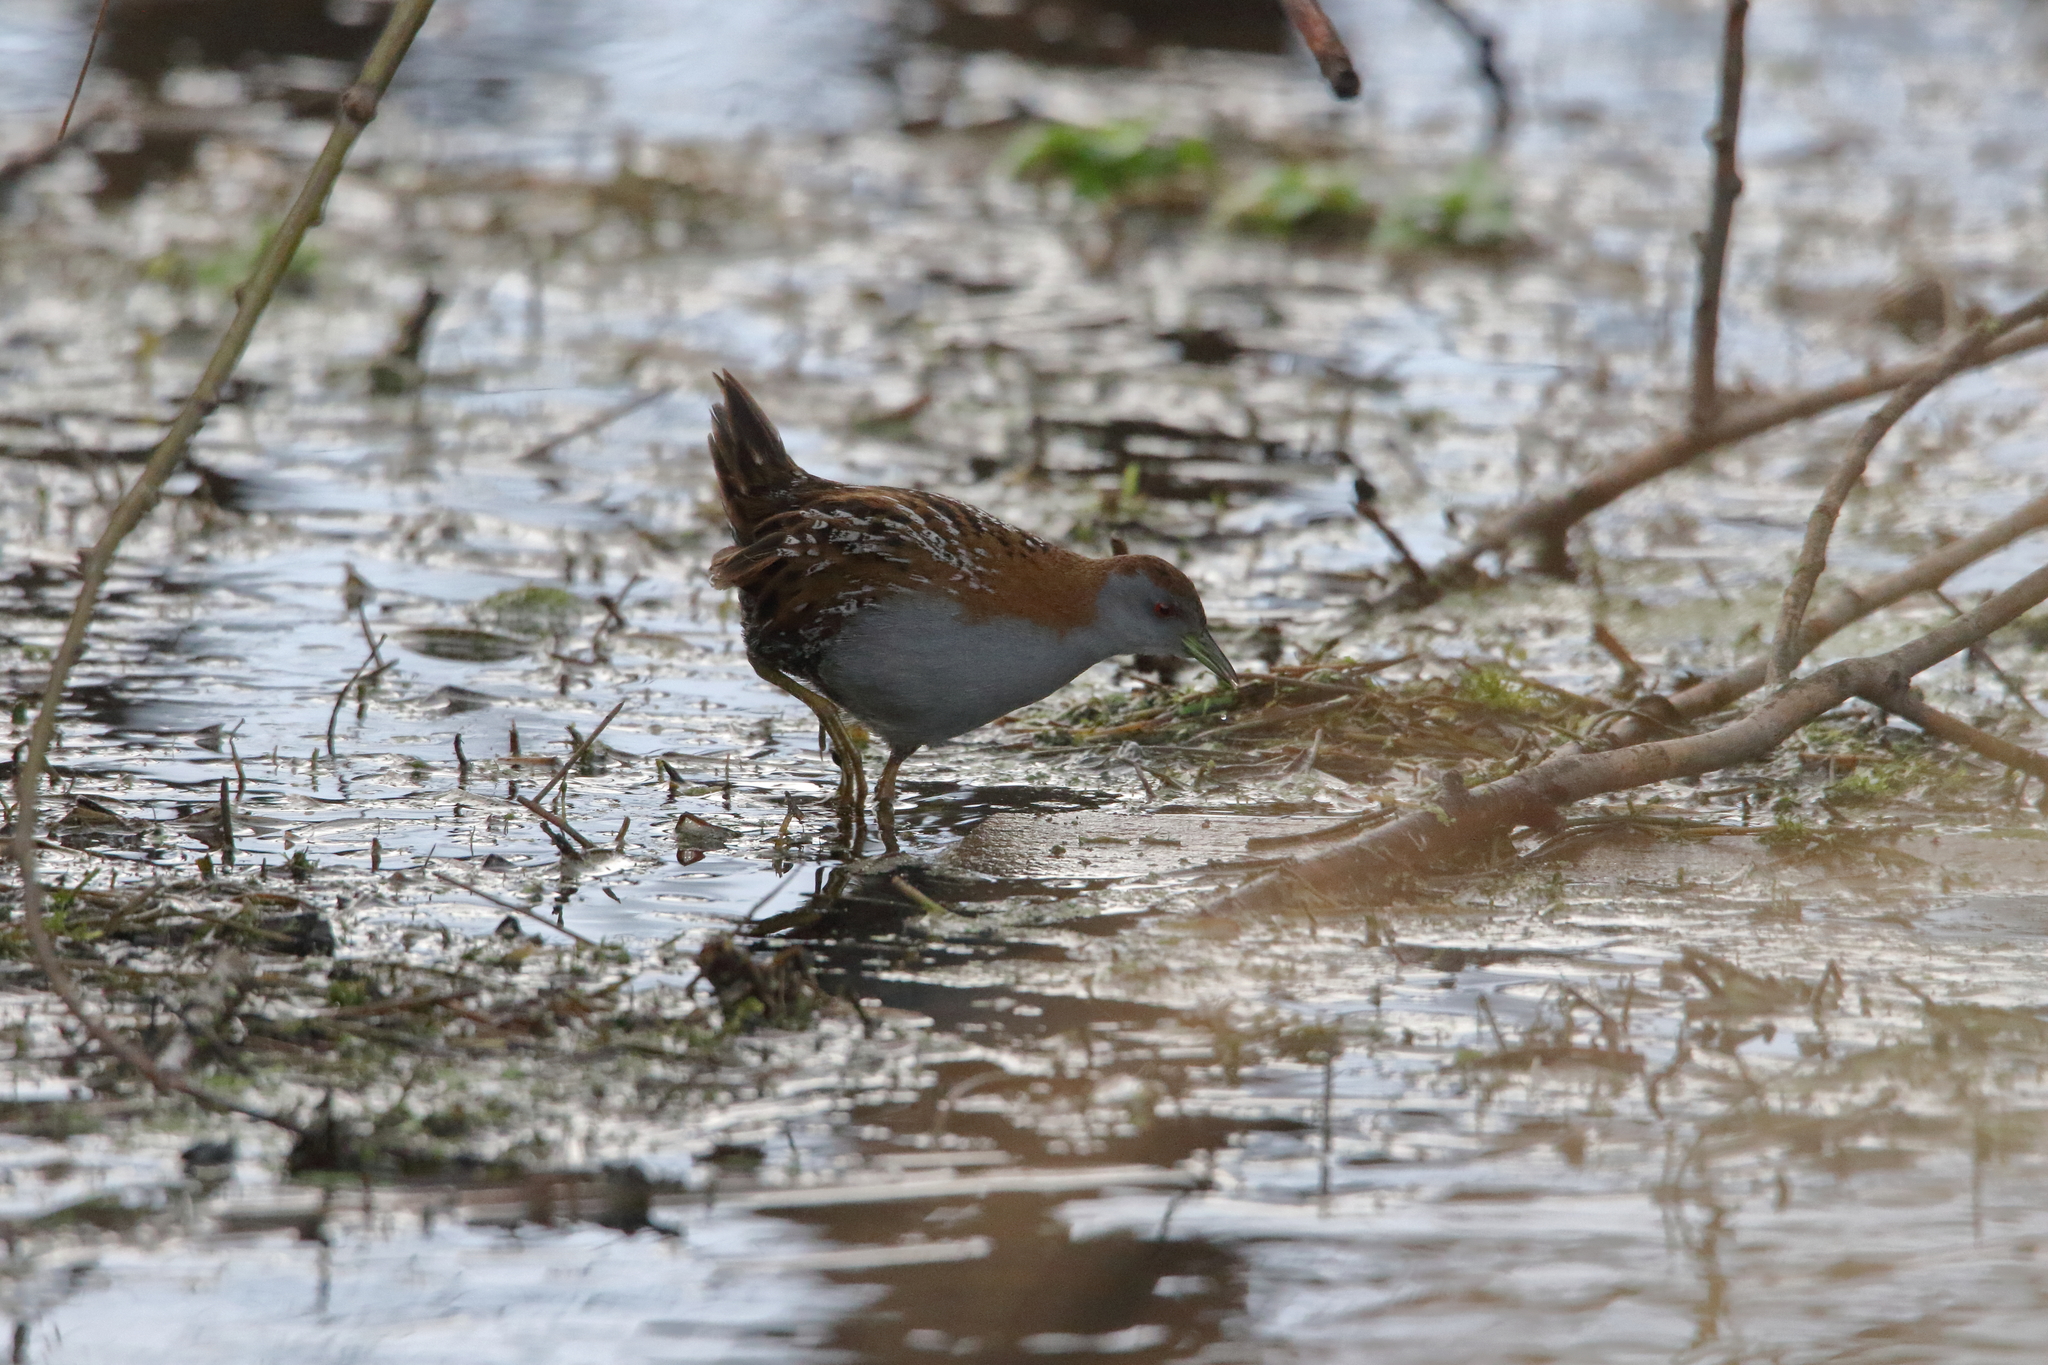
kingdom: Animalia
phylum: Chordata
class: Aves
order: Gruiformes
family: Rallidae
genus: Porzana
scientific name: Porzana pusilla
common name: Baillon's crake
